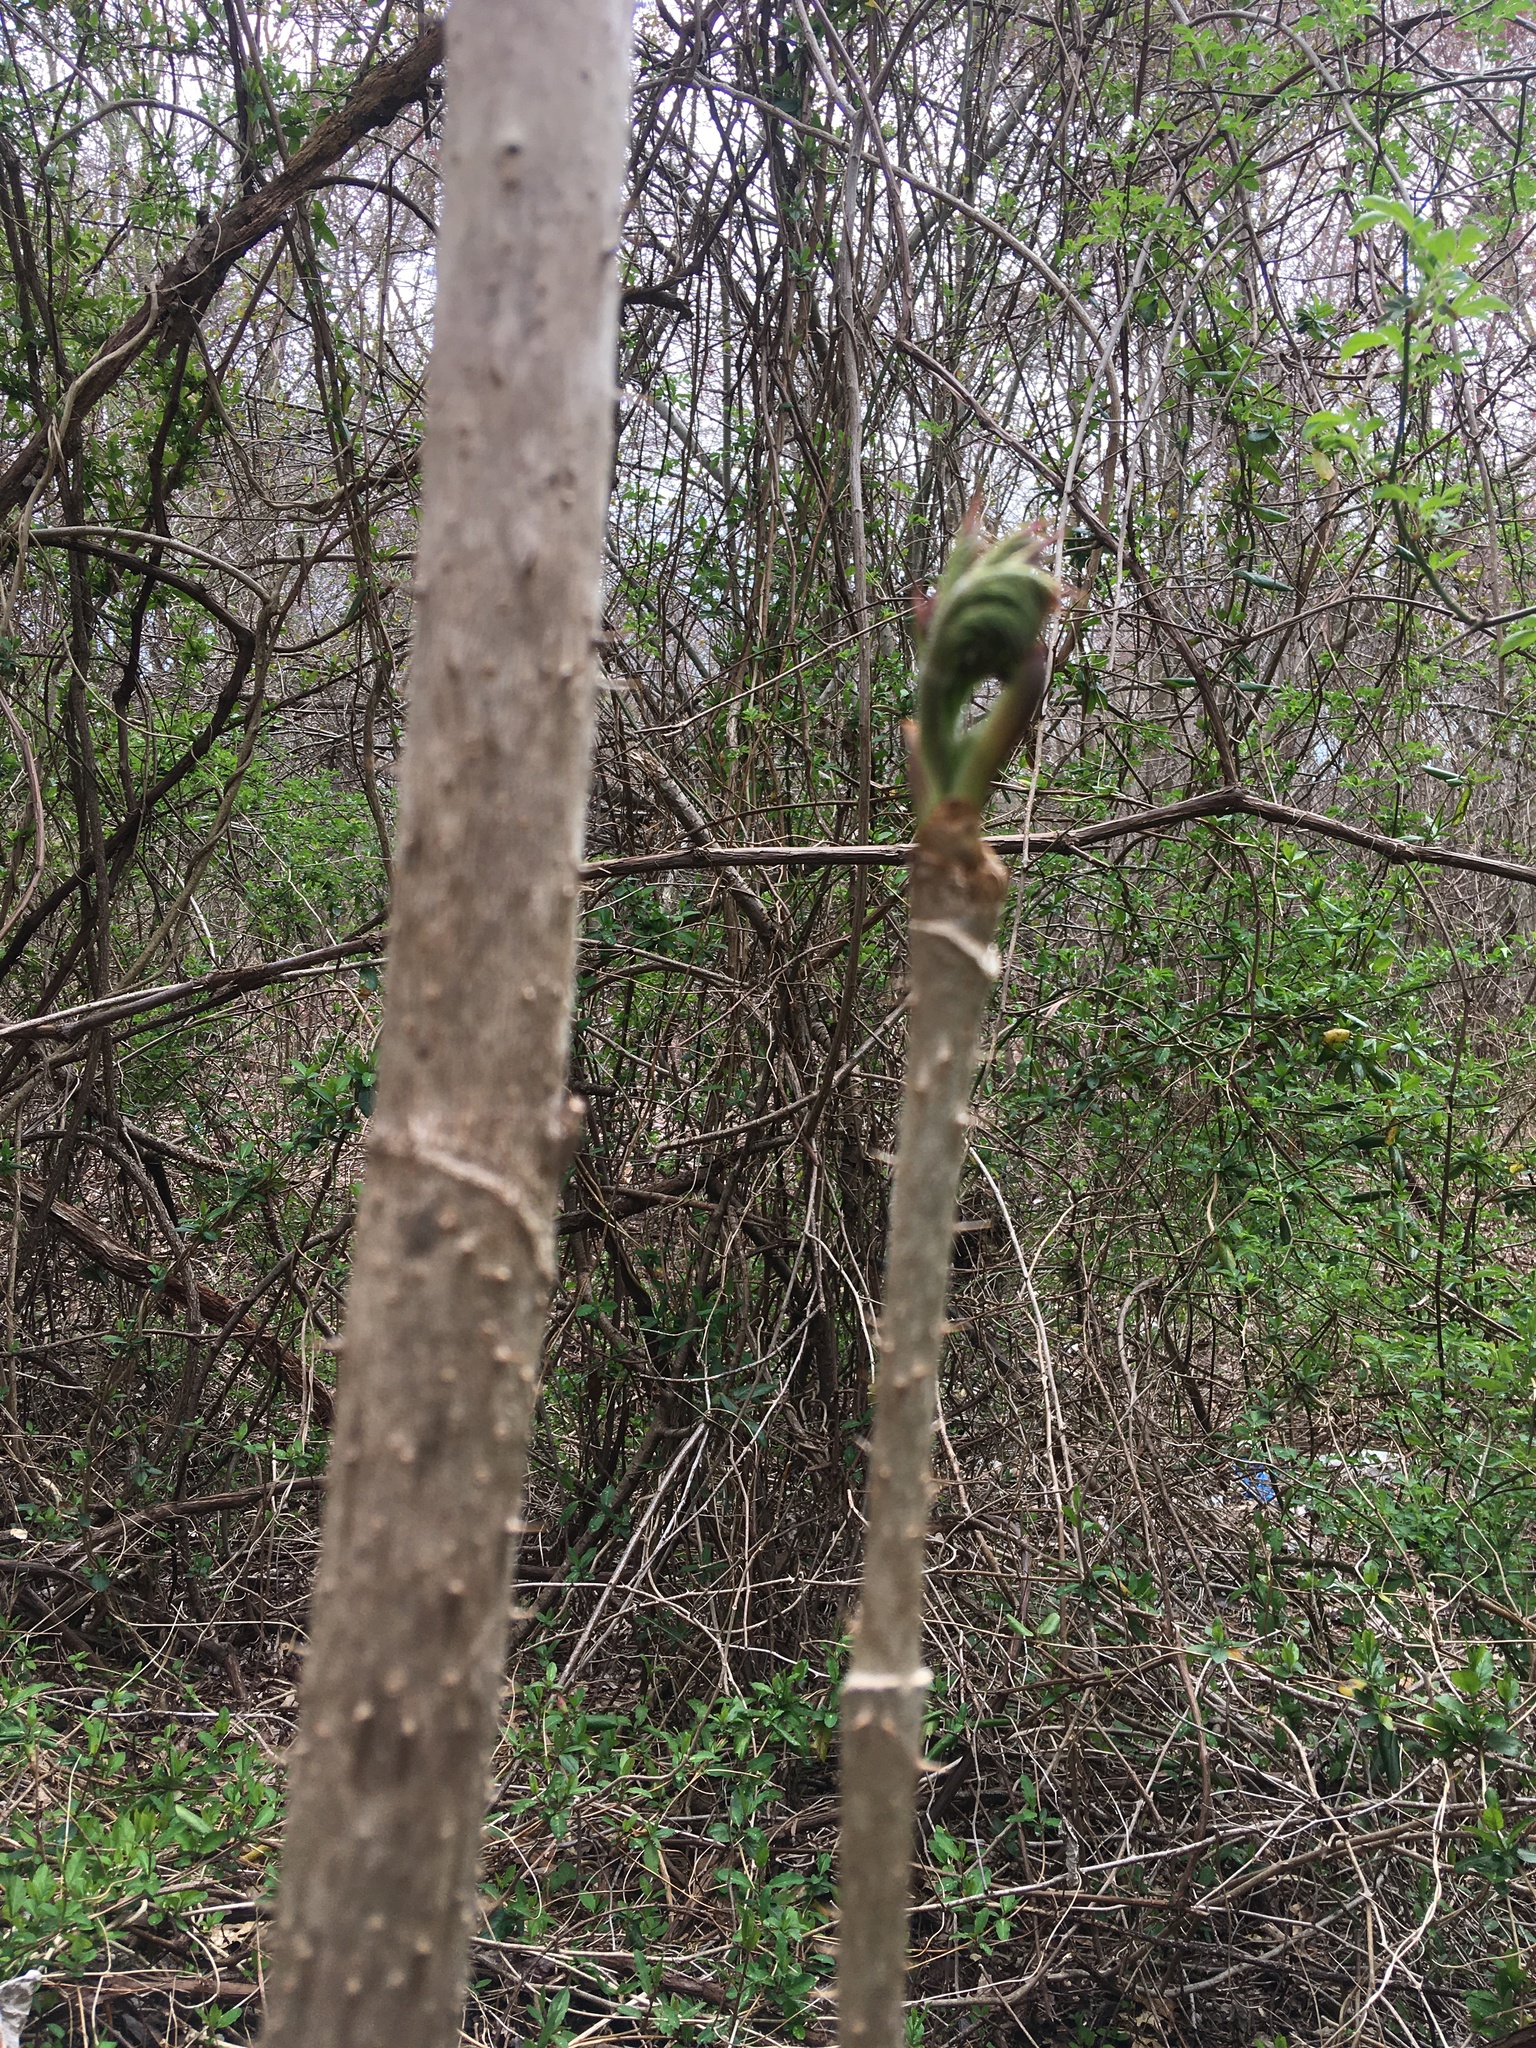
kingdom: Plantae
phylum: Tracheophyta
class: Magnoliopsida
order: Apiales
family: Araliaceae
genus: Aralia
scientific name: Aralia elata
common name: Japanese angelica-tree
